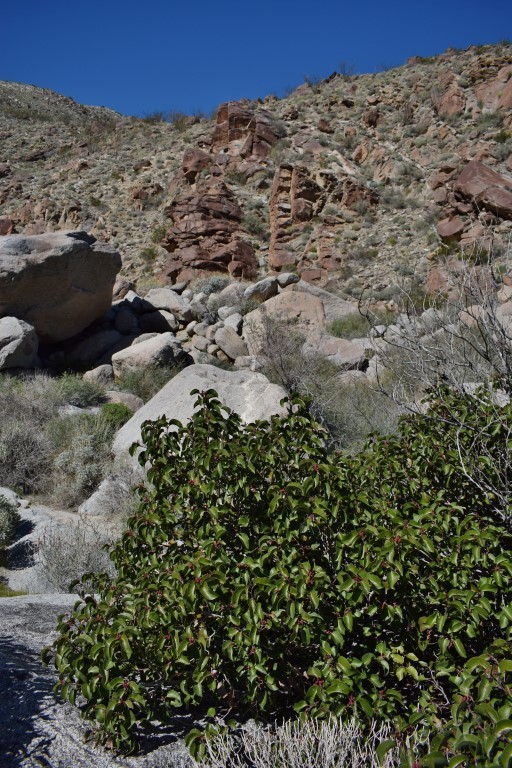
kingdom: Plantae
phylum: Tracheophyta
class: Magnoliopsida
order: Sapindales
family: Anacardiaceae
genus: Rhus
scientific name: Rhus ovata
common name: Sugar sumac
